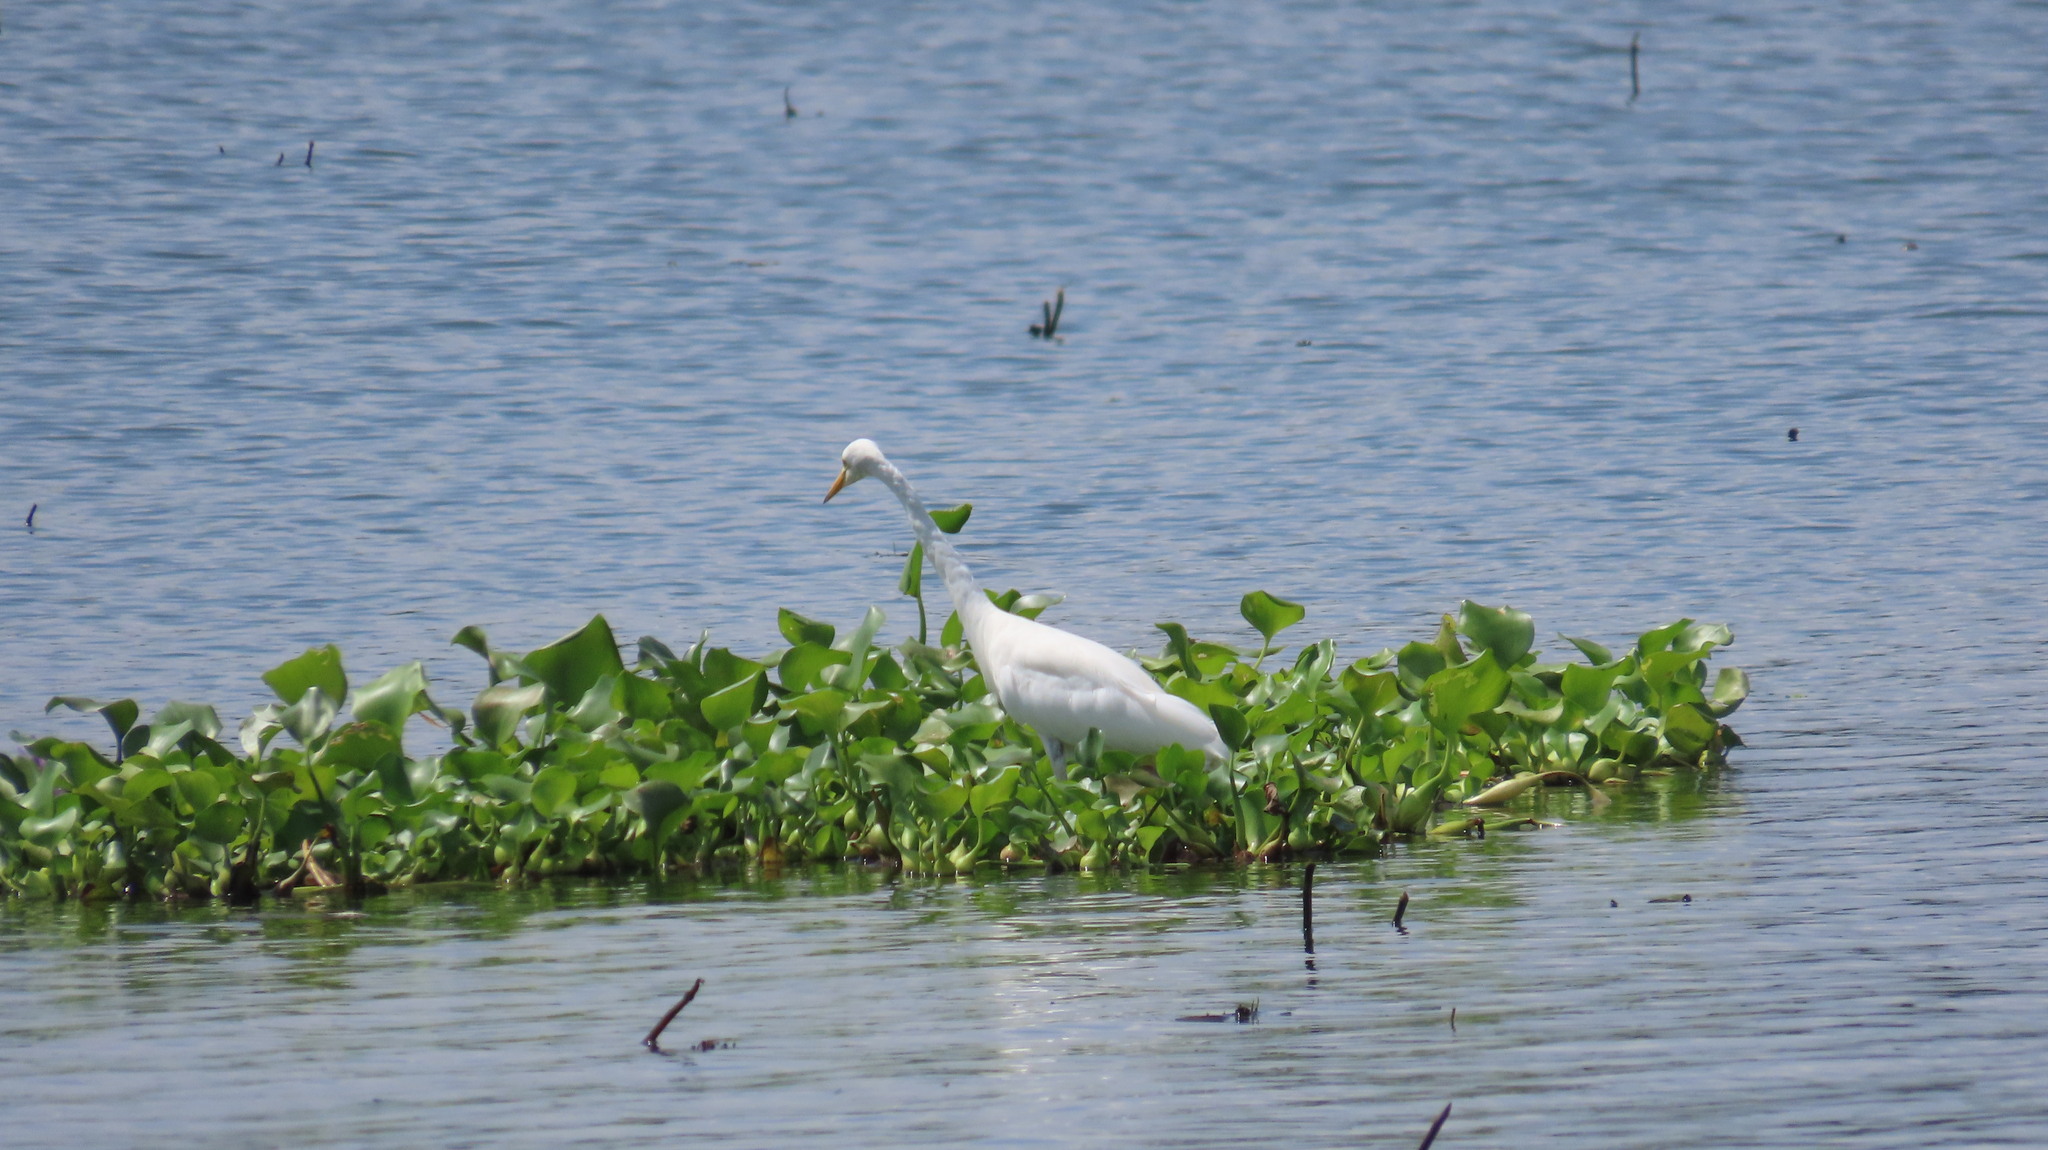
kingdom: Animalia
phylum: Chordata
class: Aves
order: Pelecaniformes
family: Ardeidae
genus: Egretta
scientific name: Egretta intermedia
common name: Intermediate egret
